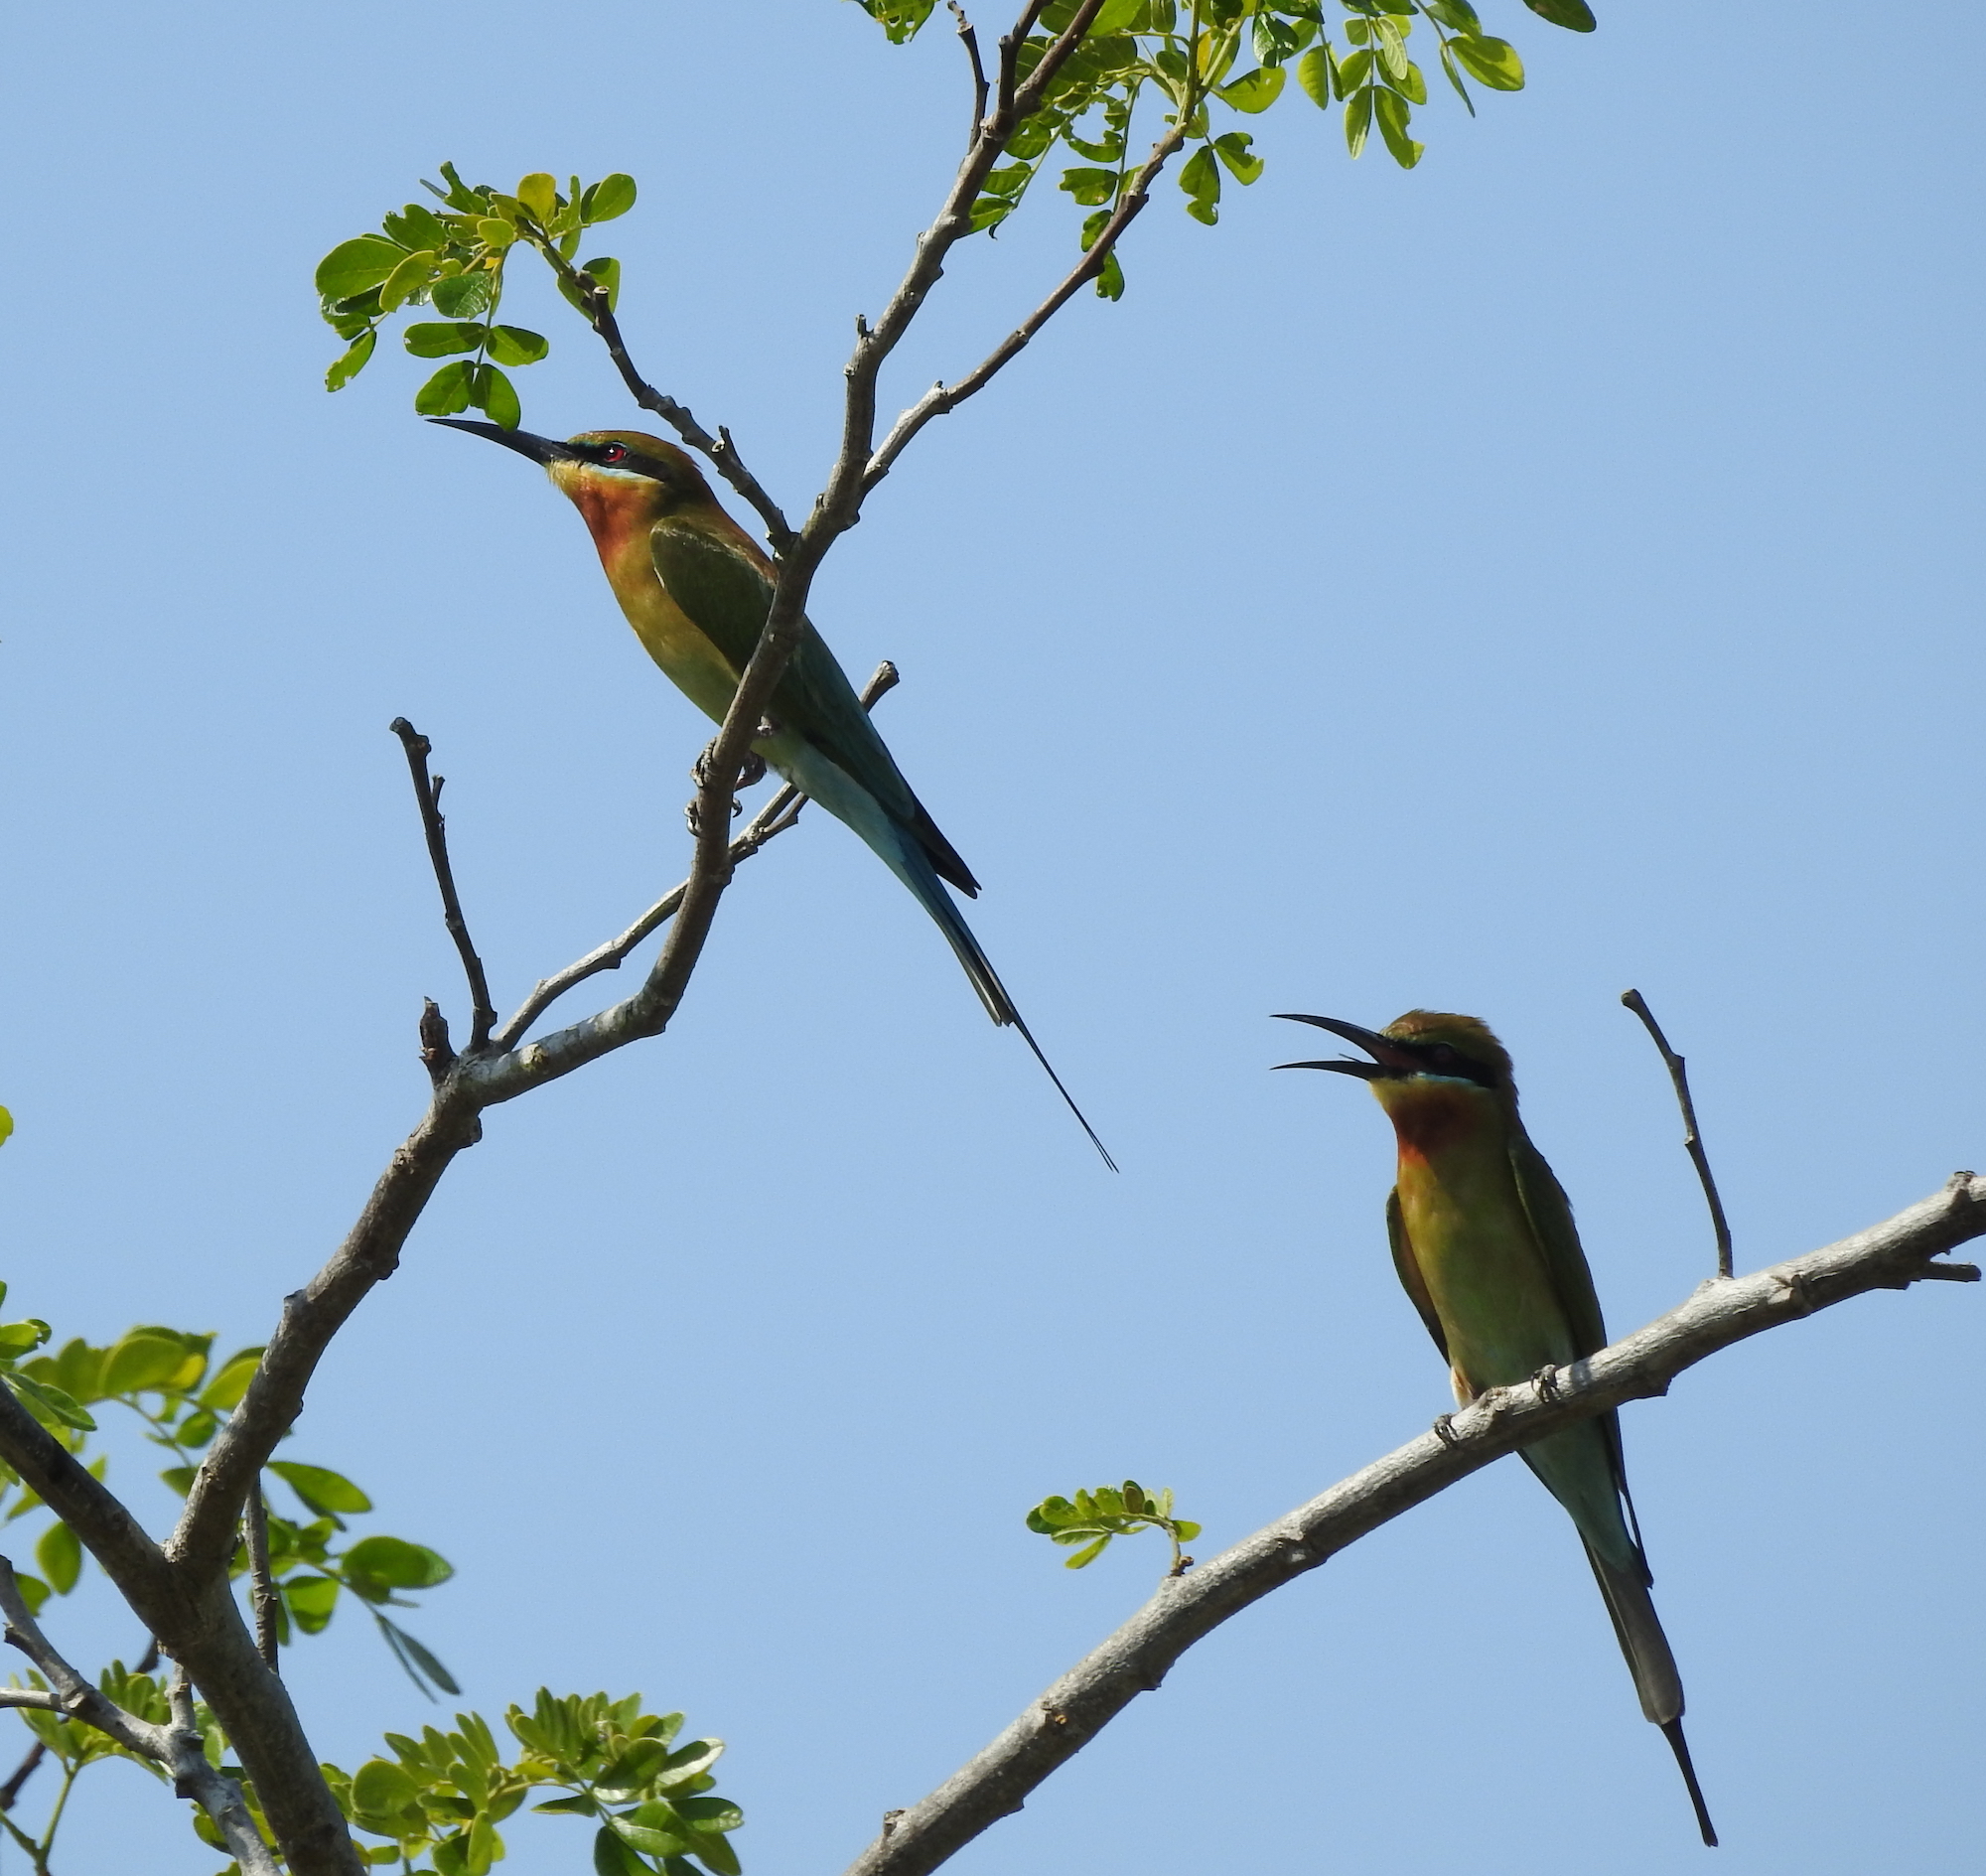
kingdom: Animalia
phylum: Chordata
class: Aves
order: Coraciiformes
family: Meropidae
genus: Merops
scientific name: Merops philippinus
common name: Blue-tailed bee-eater
